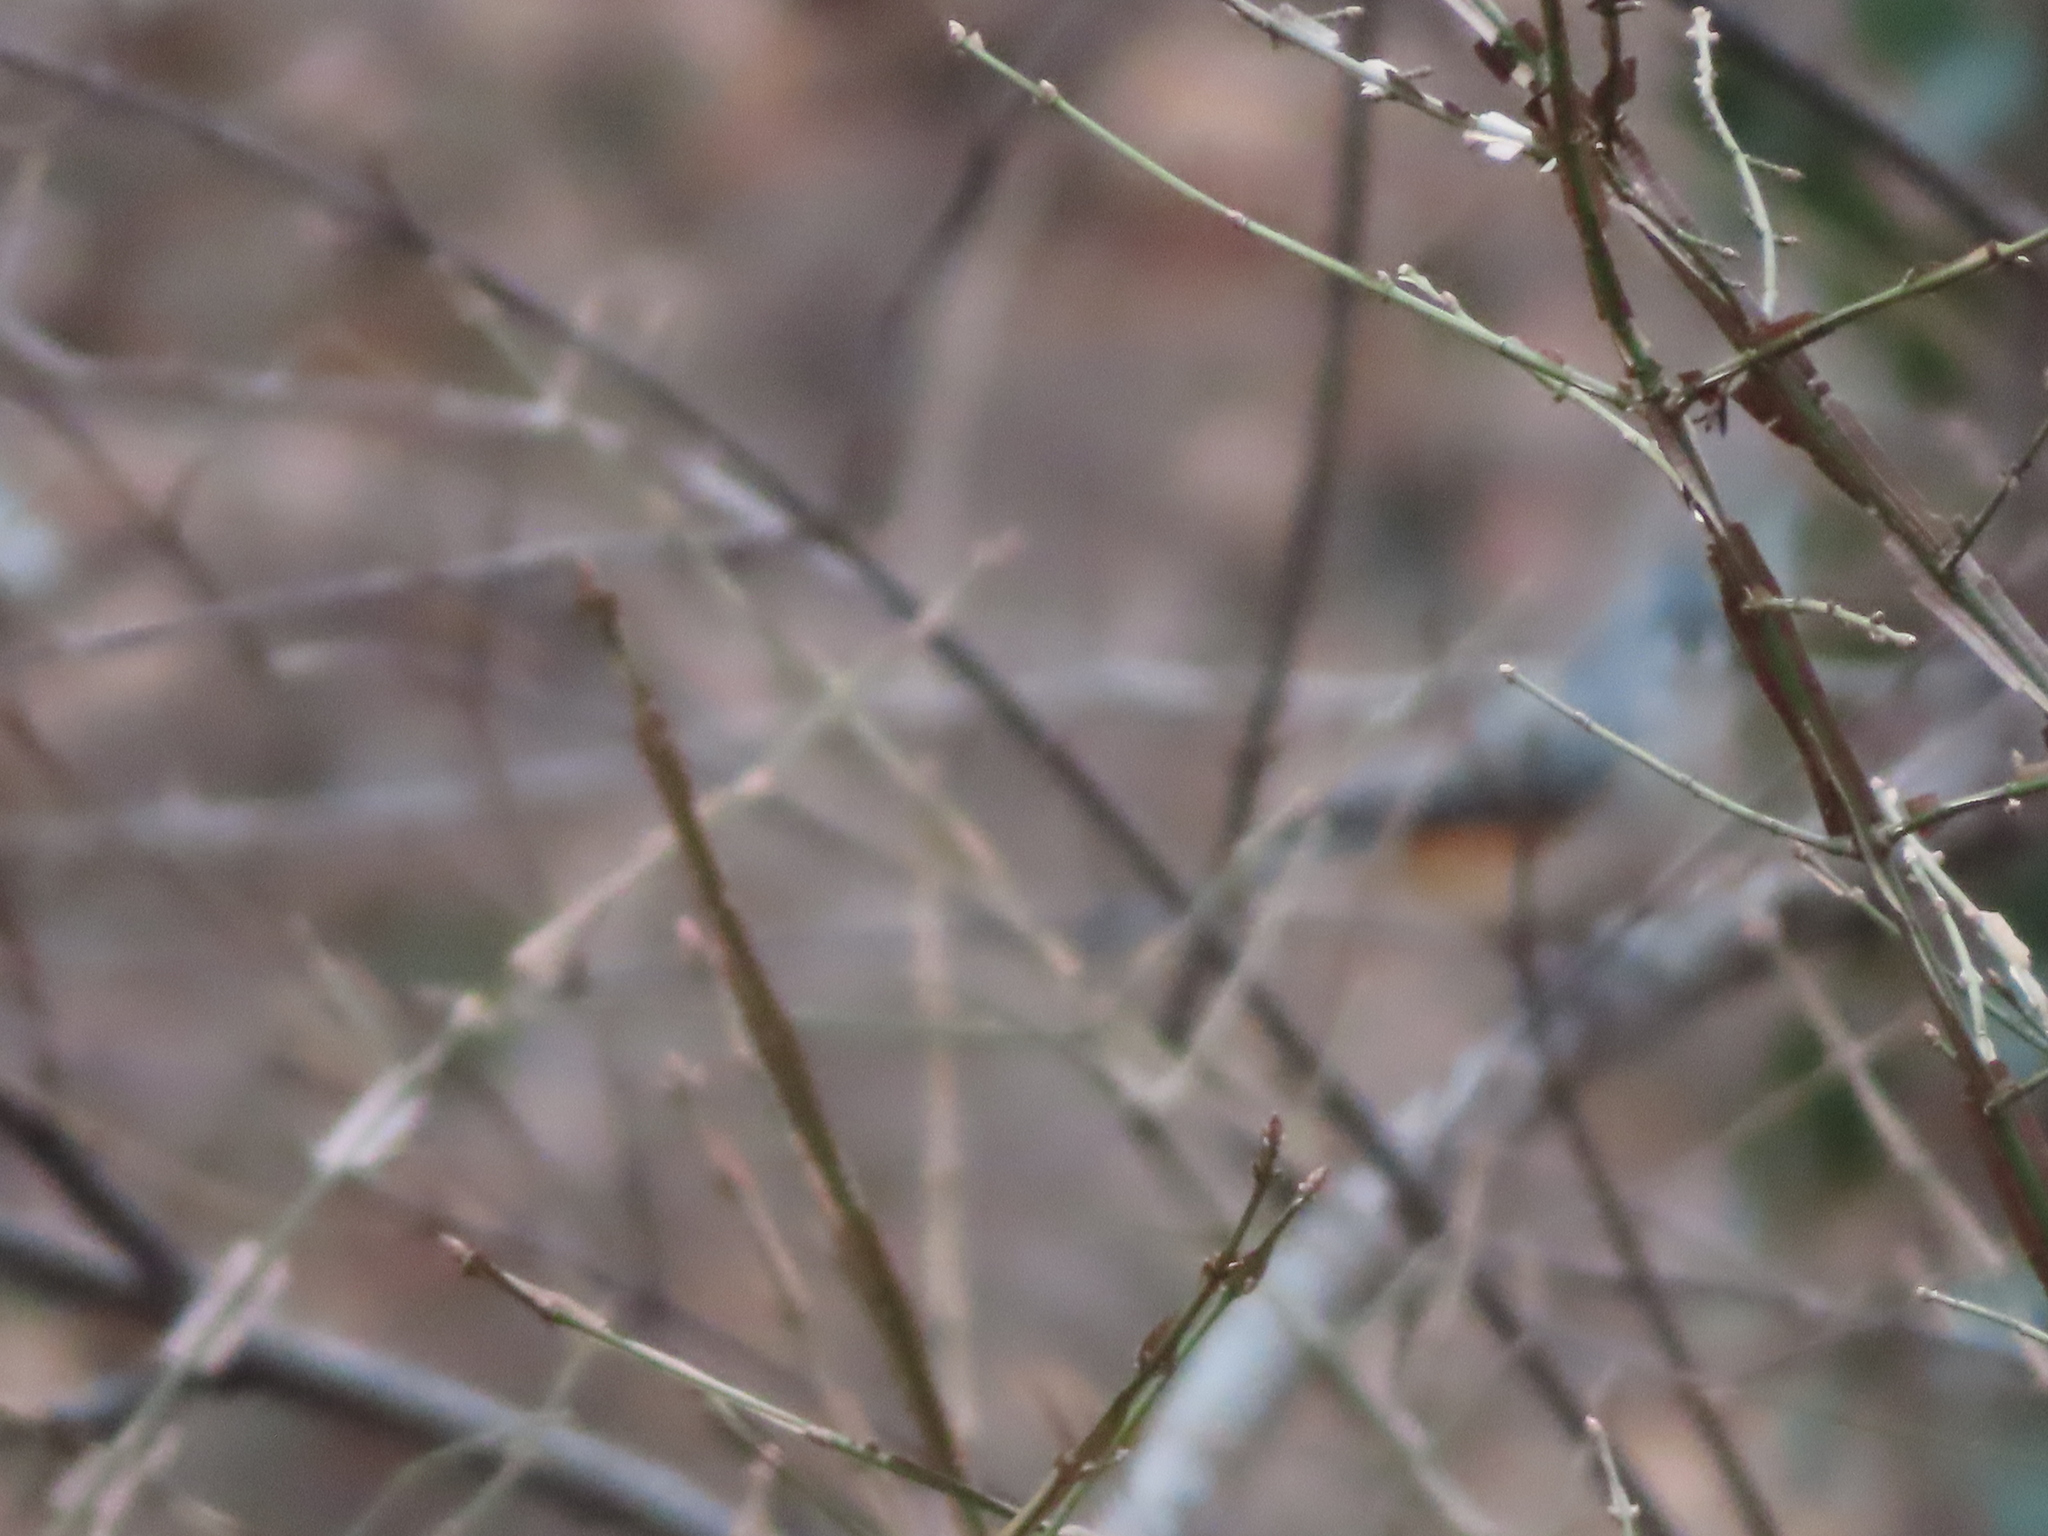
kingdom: Animalia
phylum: Chordata
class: Aves
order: Passeriformes
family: Paridae
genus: Baeolophus
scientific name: Baeolophus bicolor
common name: Tufted titmouse
